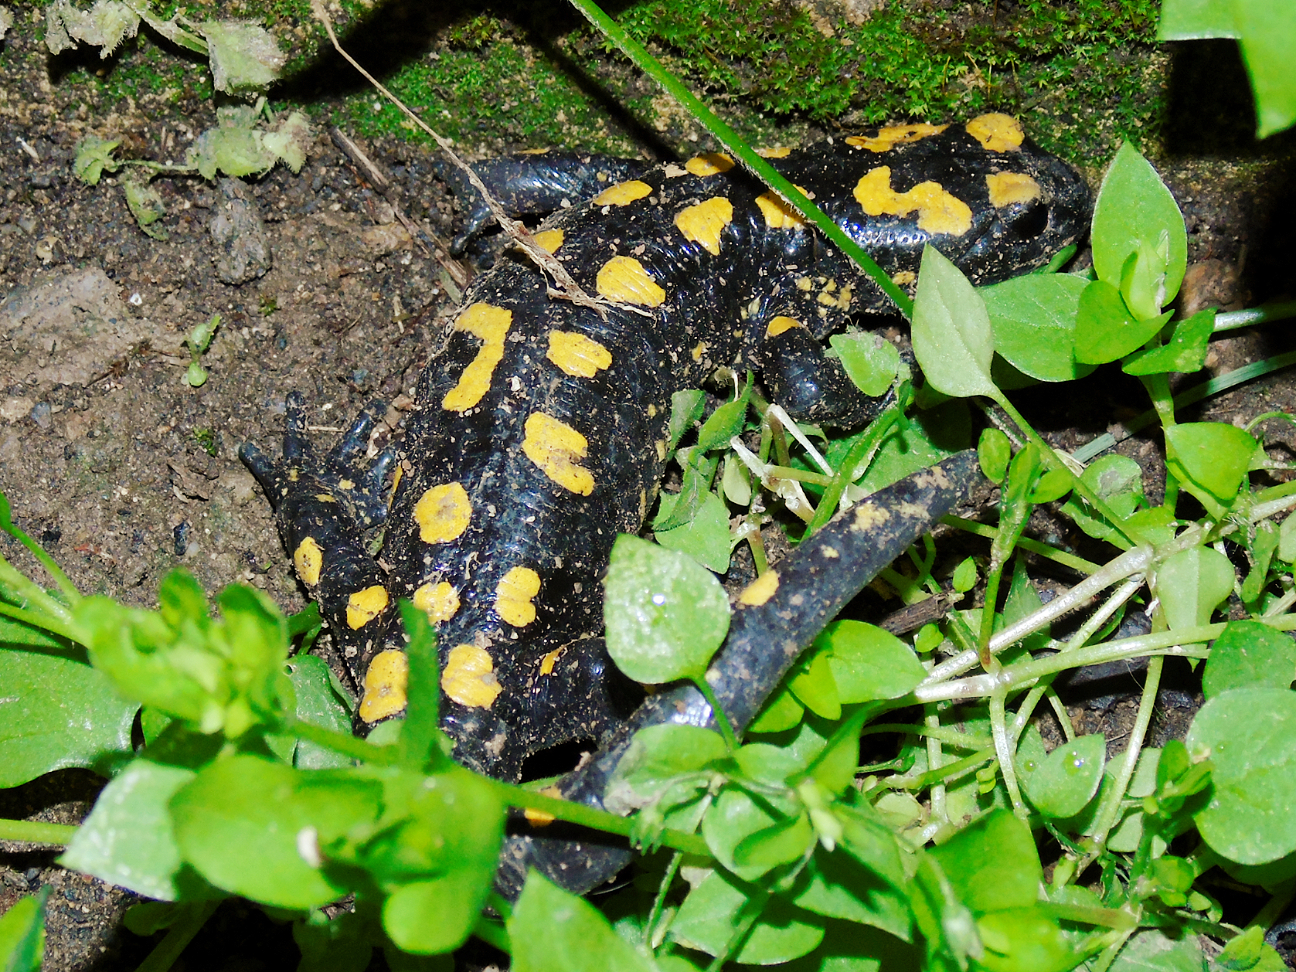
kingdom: Animalia
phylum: Chordata
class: Amphibia
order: Caudata
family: Salamandridae
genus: Salamandra
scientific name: Salamandra infraimmaculata
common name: Near-eastern fire salamander
